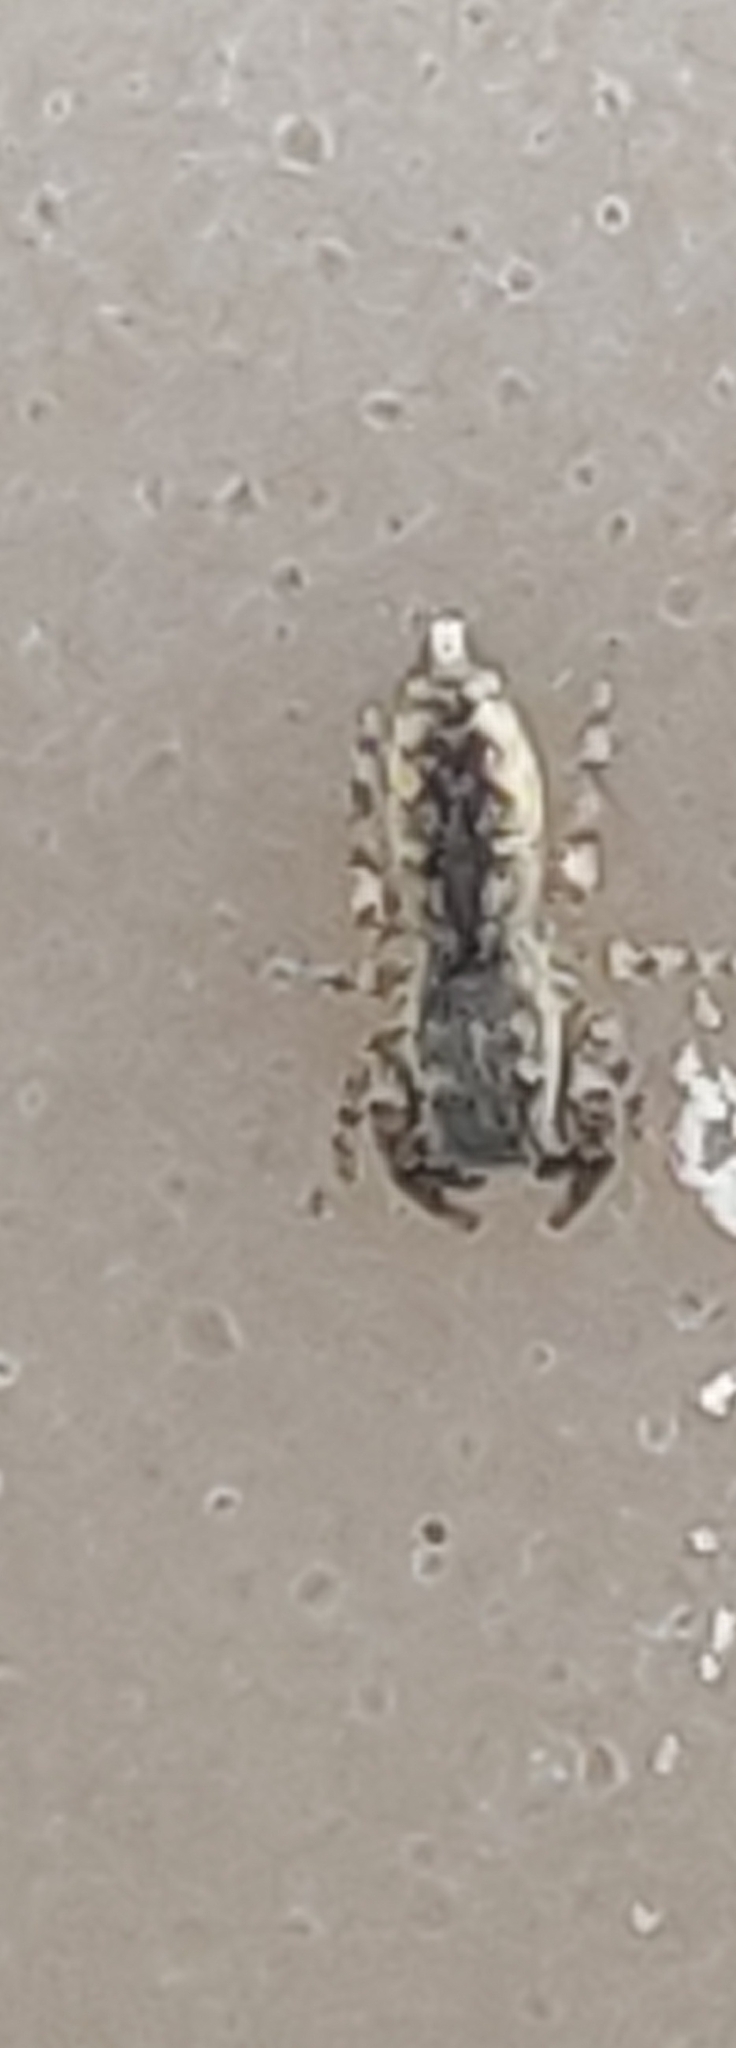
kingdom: Animalia
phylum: Arthropoda
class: Arachnida
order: Araneae
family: Salticidae
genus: Admestina
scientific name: Admestina
